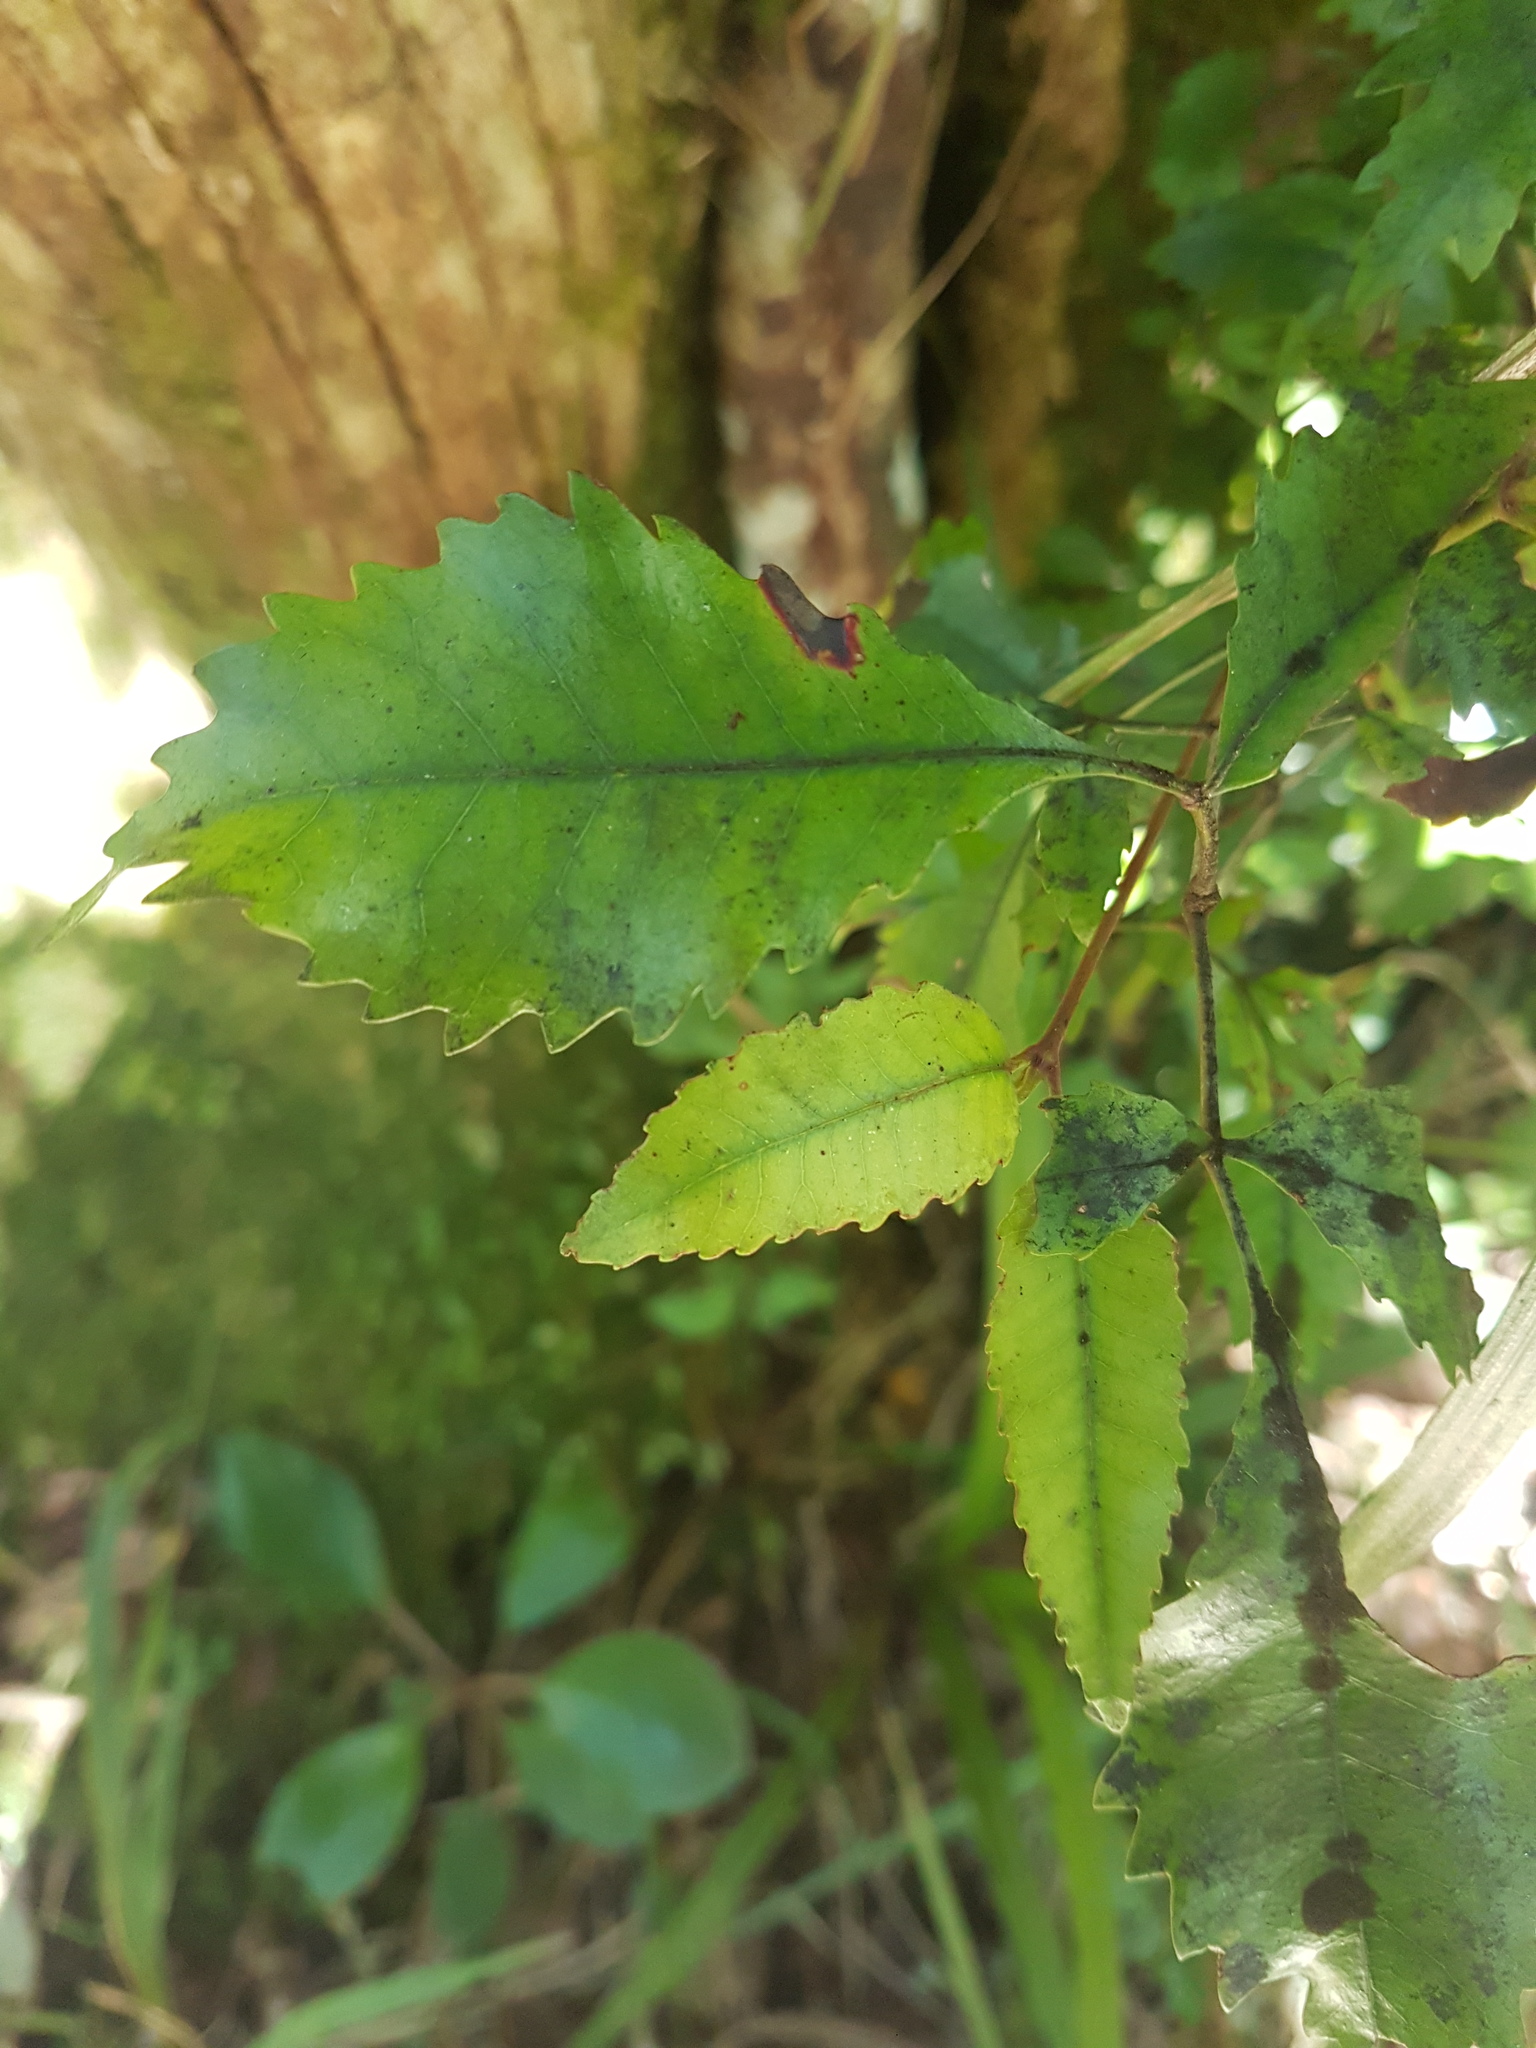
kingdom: Plantae
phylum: Tracheophyta
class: Magnoliopsida
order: Oxalidales
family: Cunoniaceae
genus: Pterophylla
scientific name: Pterophylla racemosa
